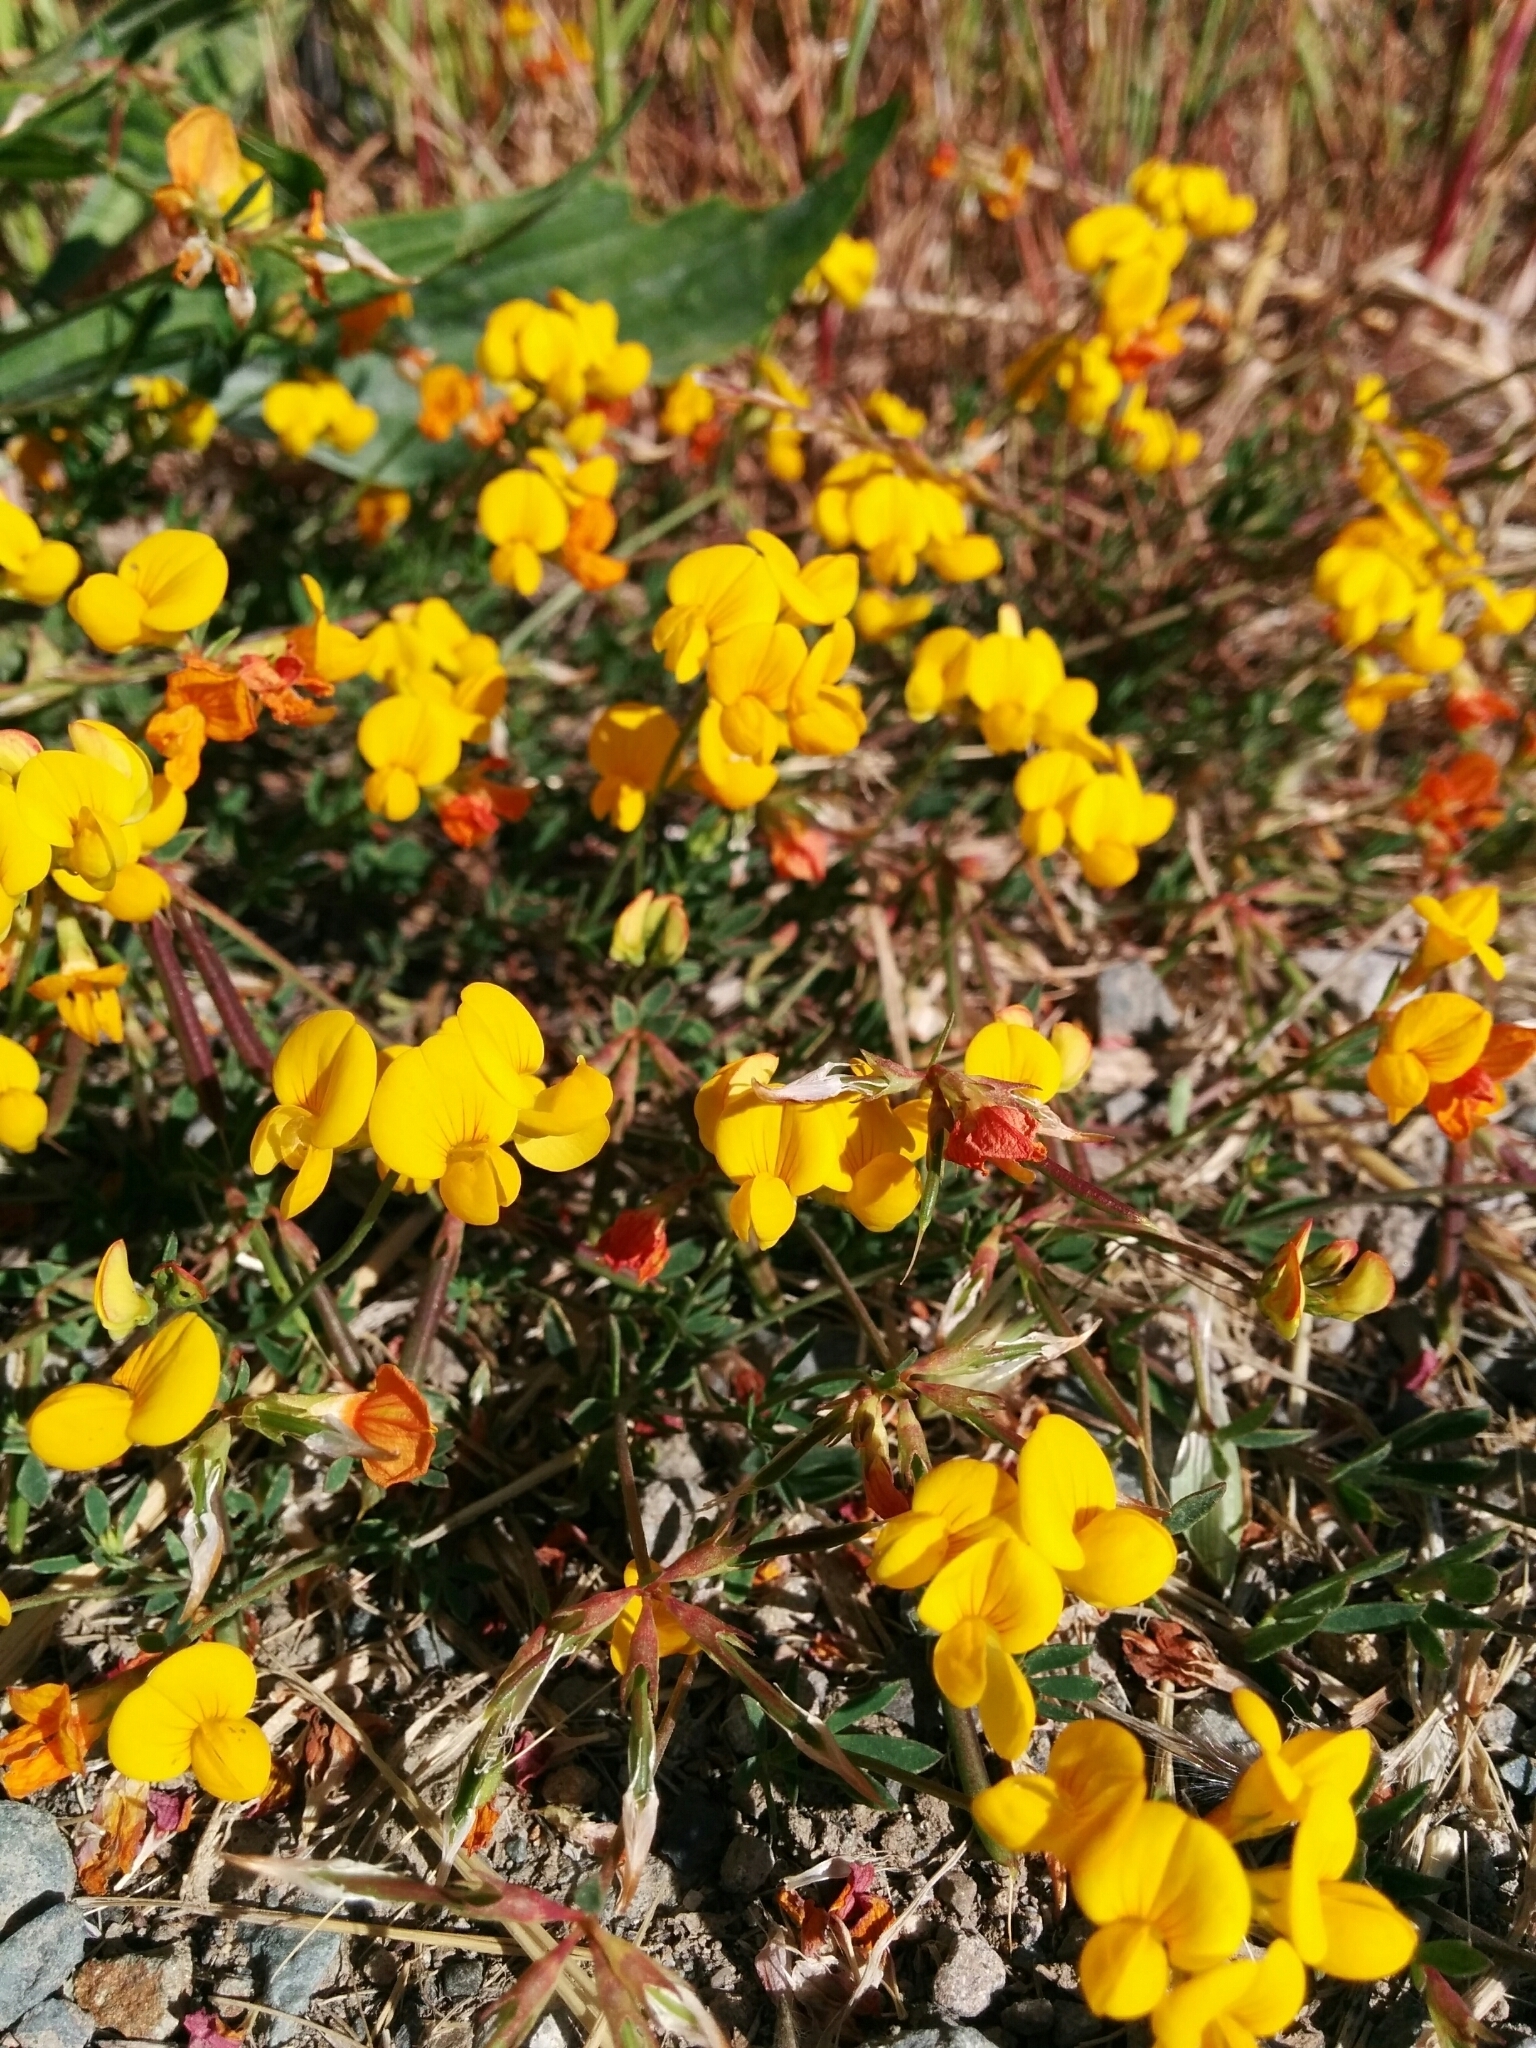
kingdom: Plantae
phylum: Tracheophyta
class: Magnoliopsida
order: Fabales
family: Fabaceae
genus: Lotus
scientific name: Lotus corniculatus
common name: Common bird's-foot-trefoil
